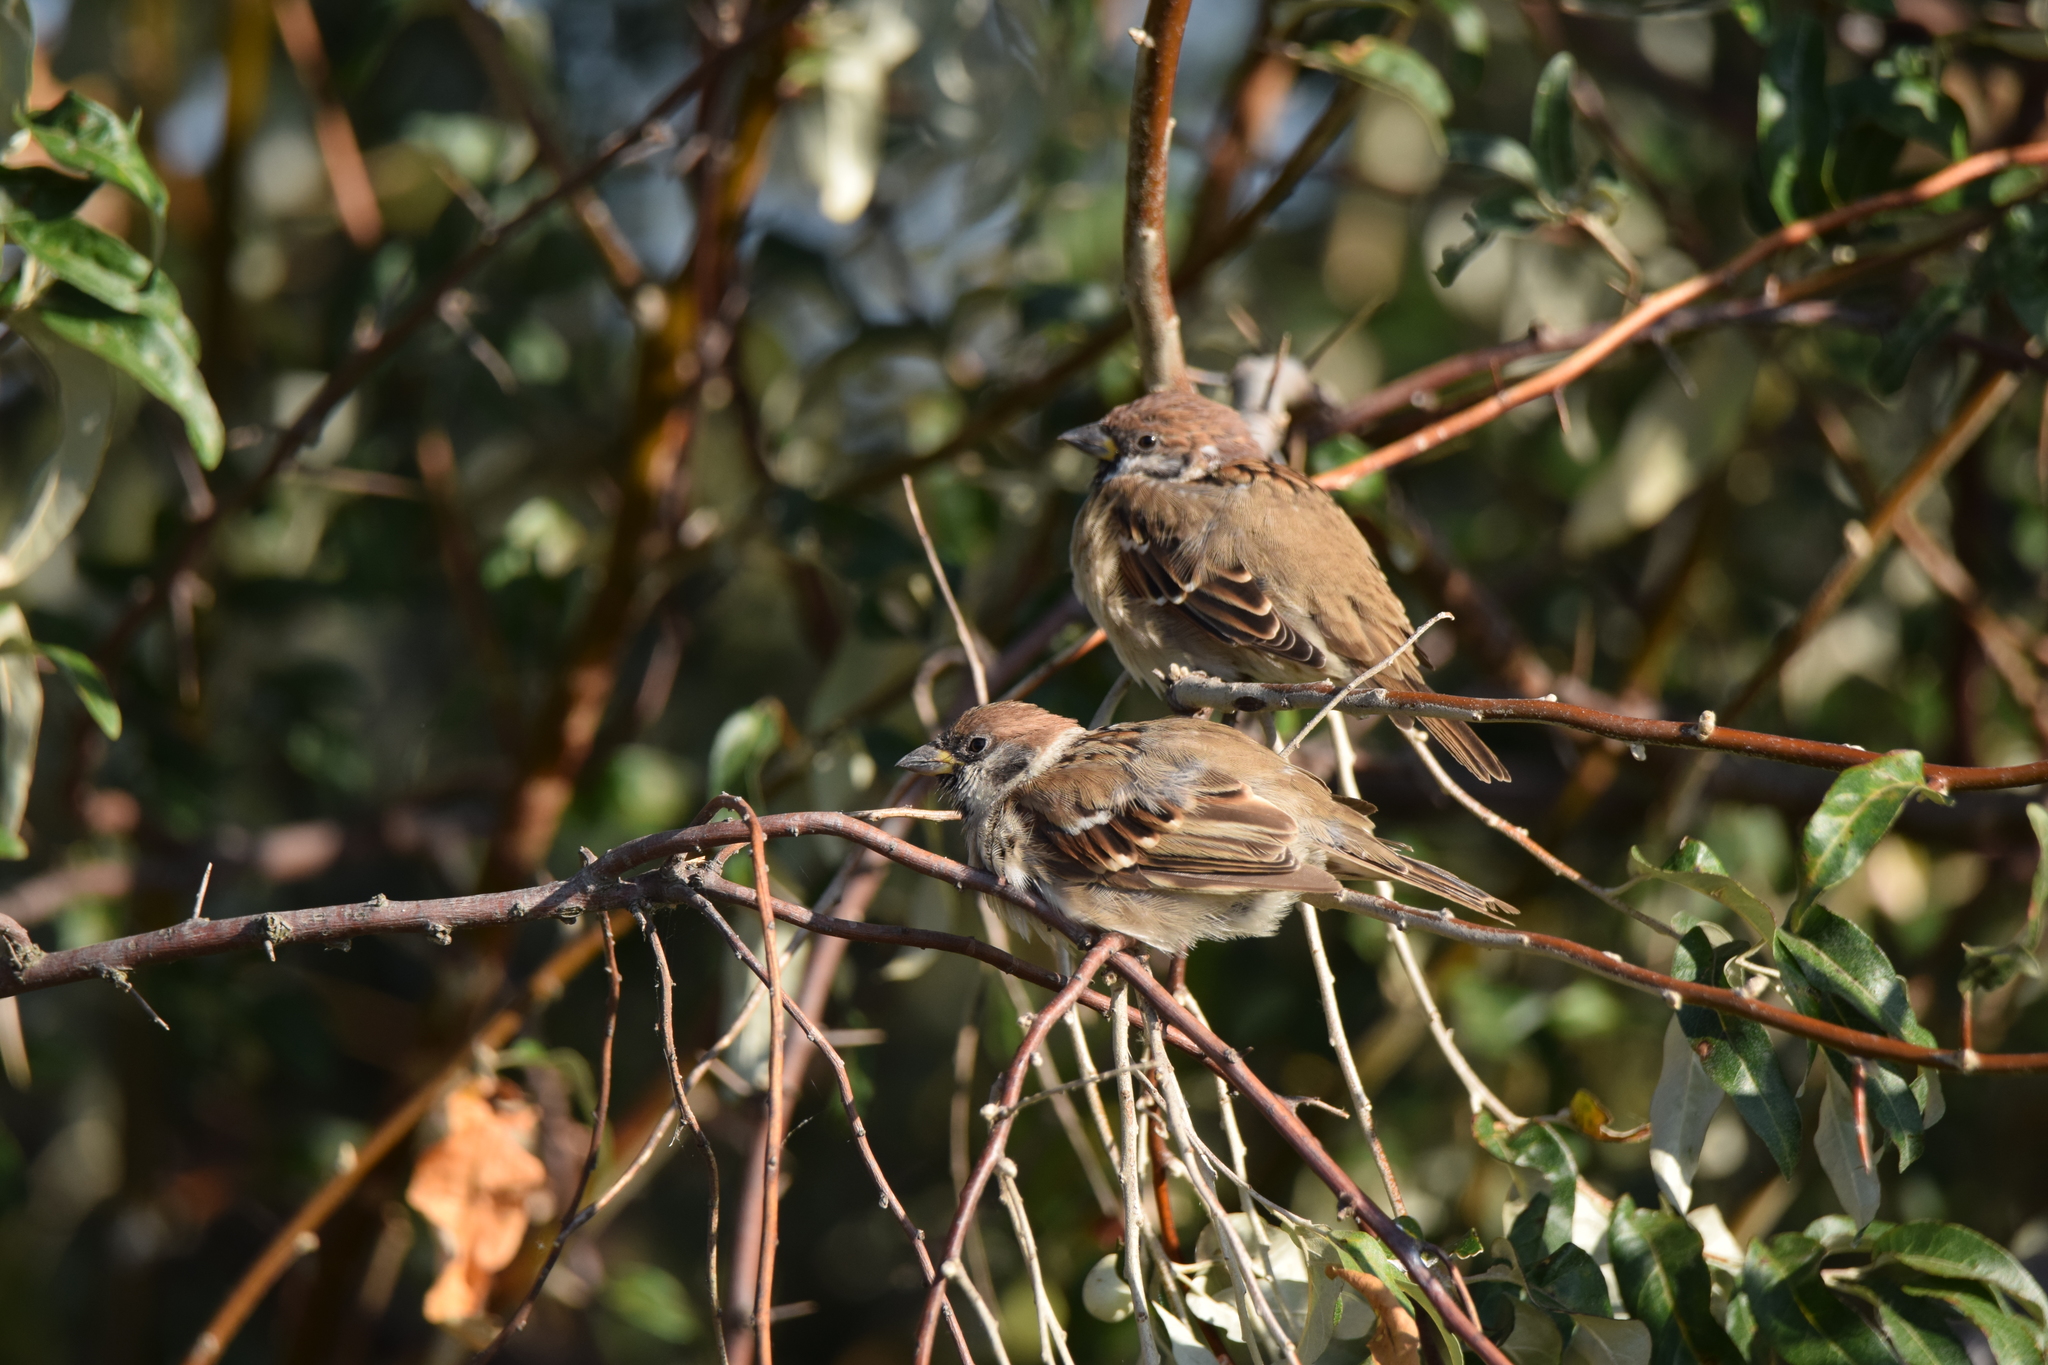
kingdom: Animalia
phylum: Chordata
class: Aves
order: Passeriformes
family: Passeridae
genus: Passer
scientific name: Passer montanus
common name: Eurasian tree sparrow
